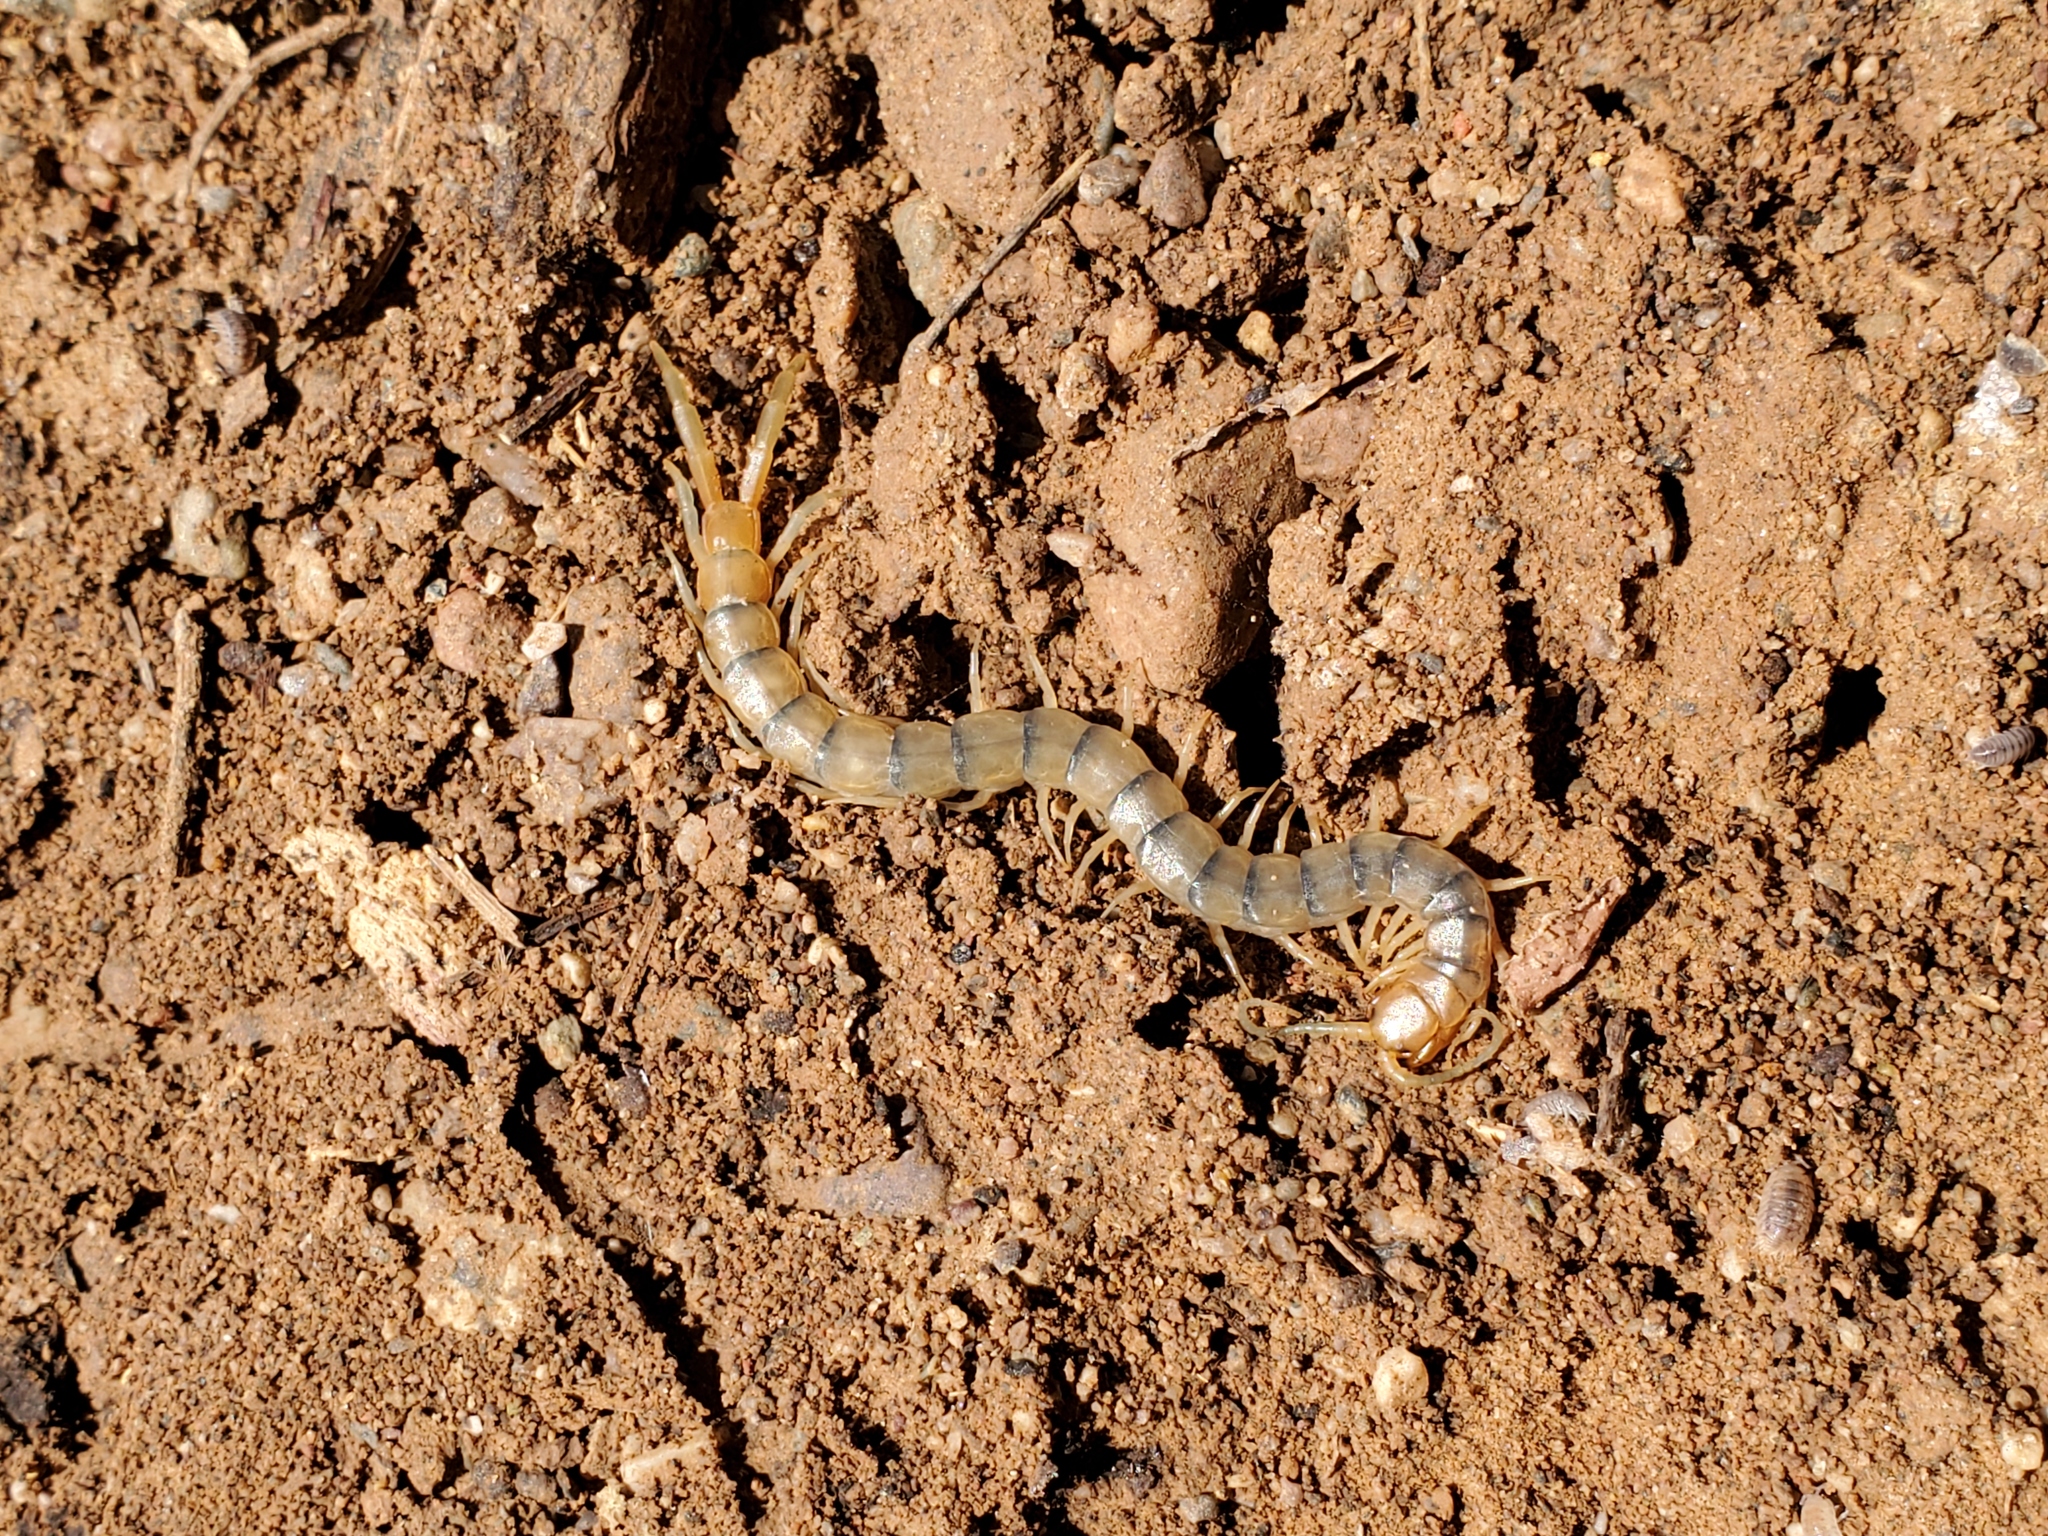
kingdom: Animalia
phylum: Arthropoda
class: Chilopoda
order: Scolopendromorpha
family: Scolopendridae
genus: Scolopendra
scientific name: Scolopendra polymorpha
